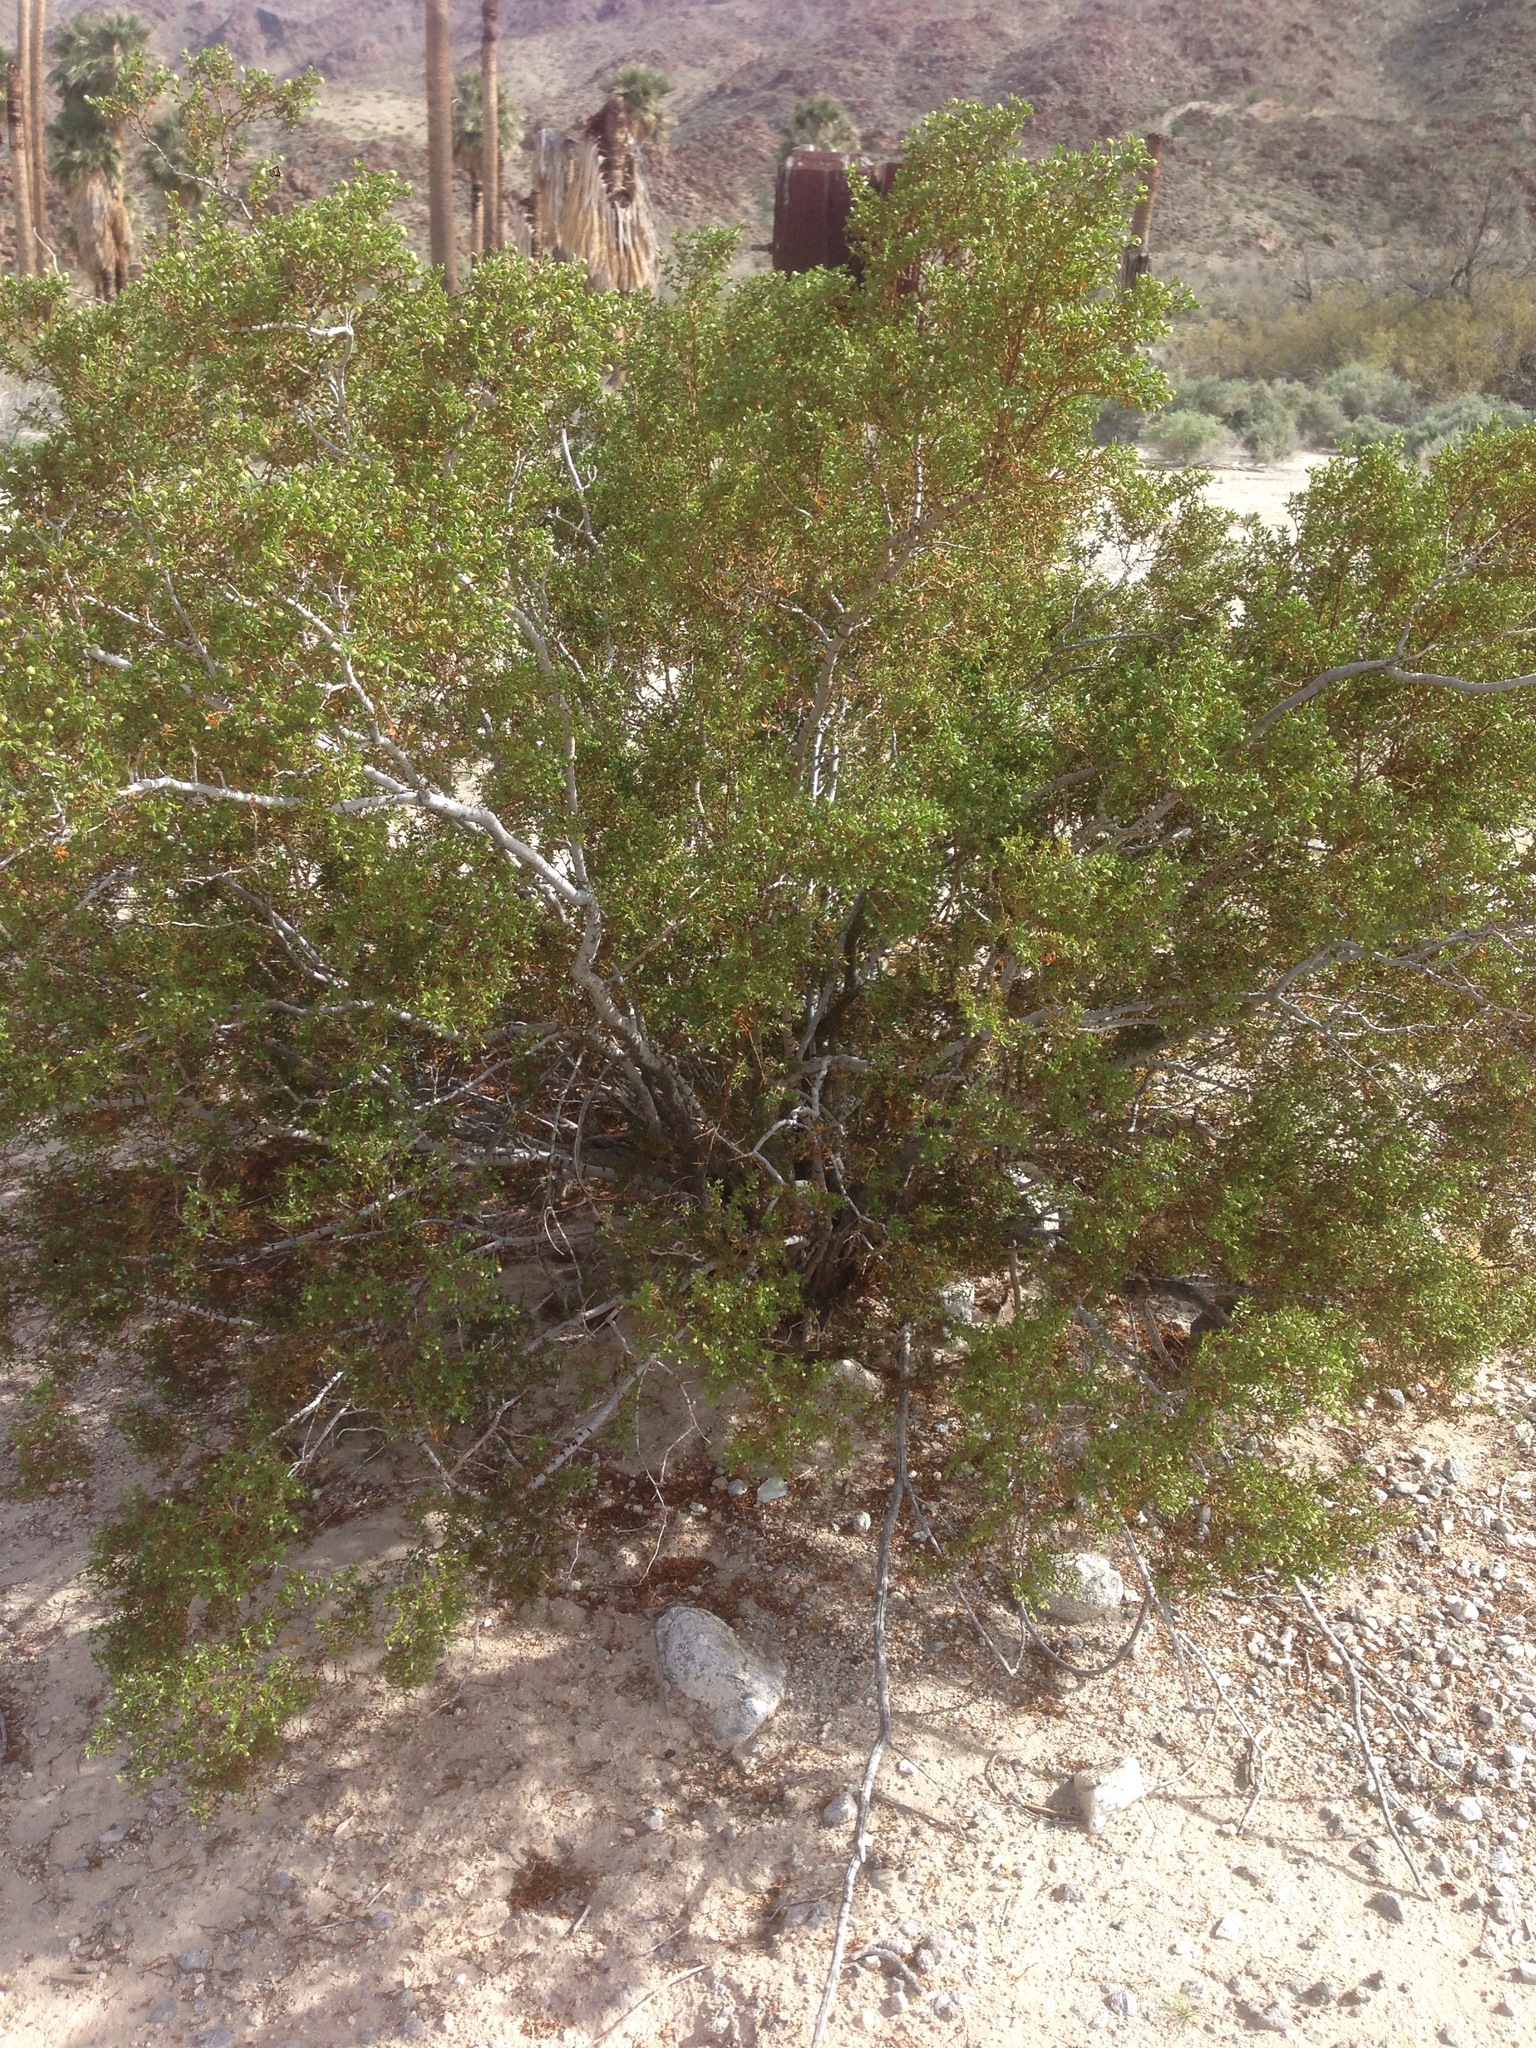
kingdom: Plantae
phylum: Tracheophyta
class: Magnoliopsida
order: Zygophyllales
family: Zygophyllaceae
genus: Larrea
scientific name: Larrea tridentata
